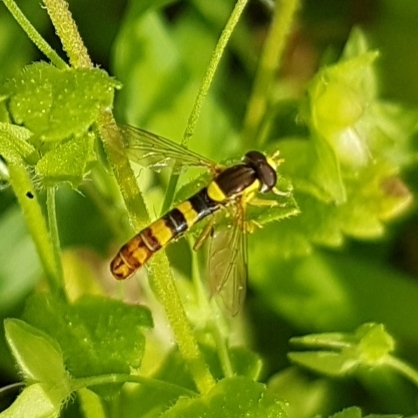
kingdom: Animalia
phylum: Arthropoda
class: Insecta
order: Diptera
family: Syrphidae
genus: Sphaerophoria
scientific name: Sphaerophoria scripta
